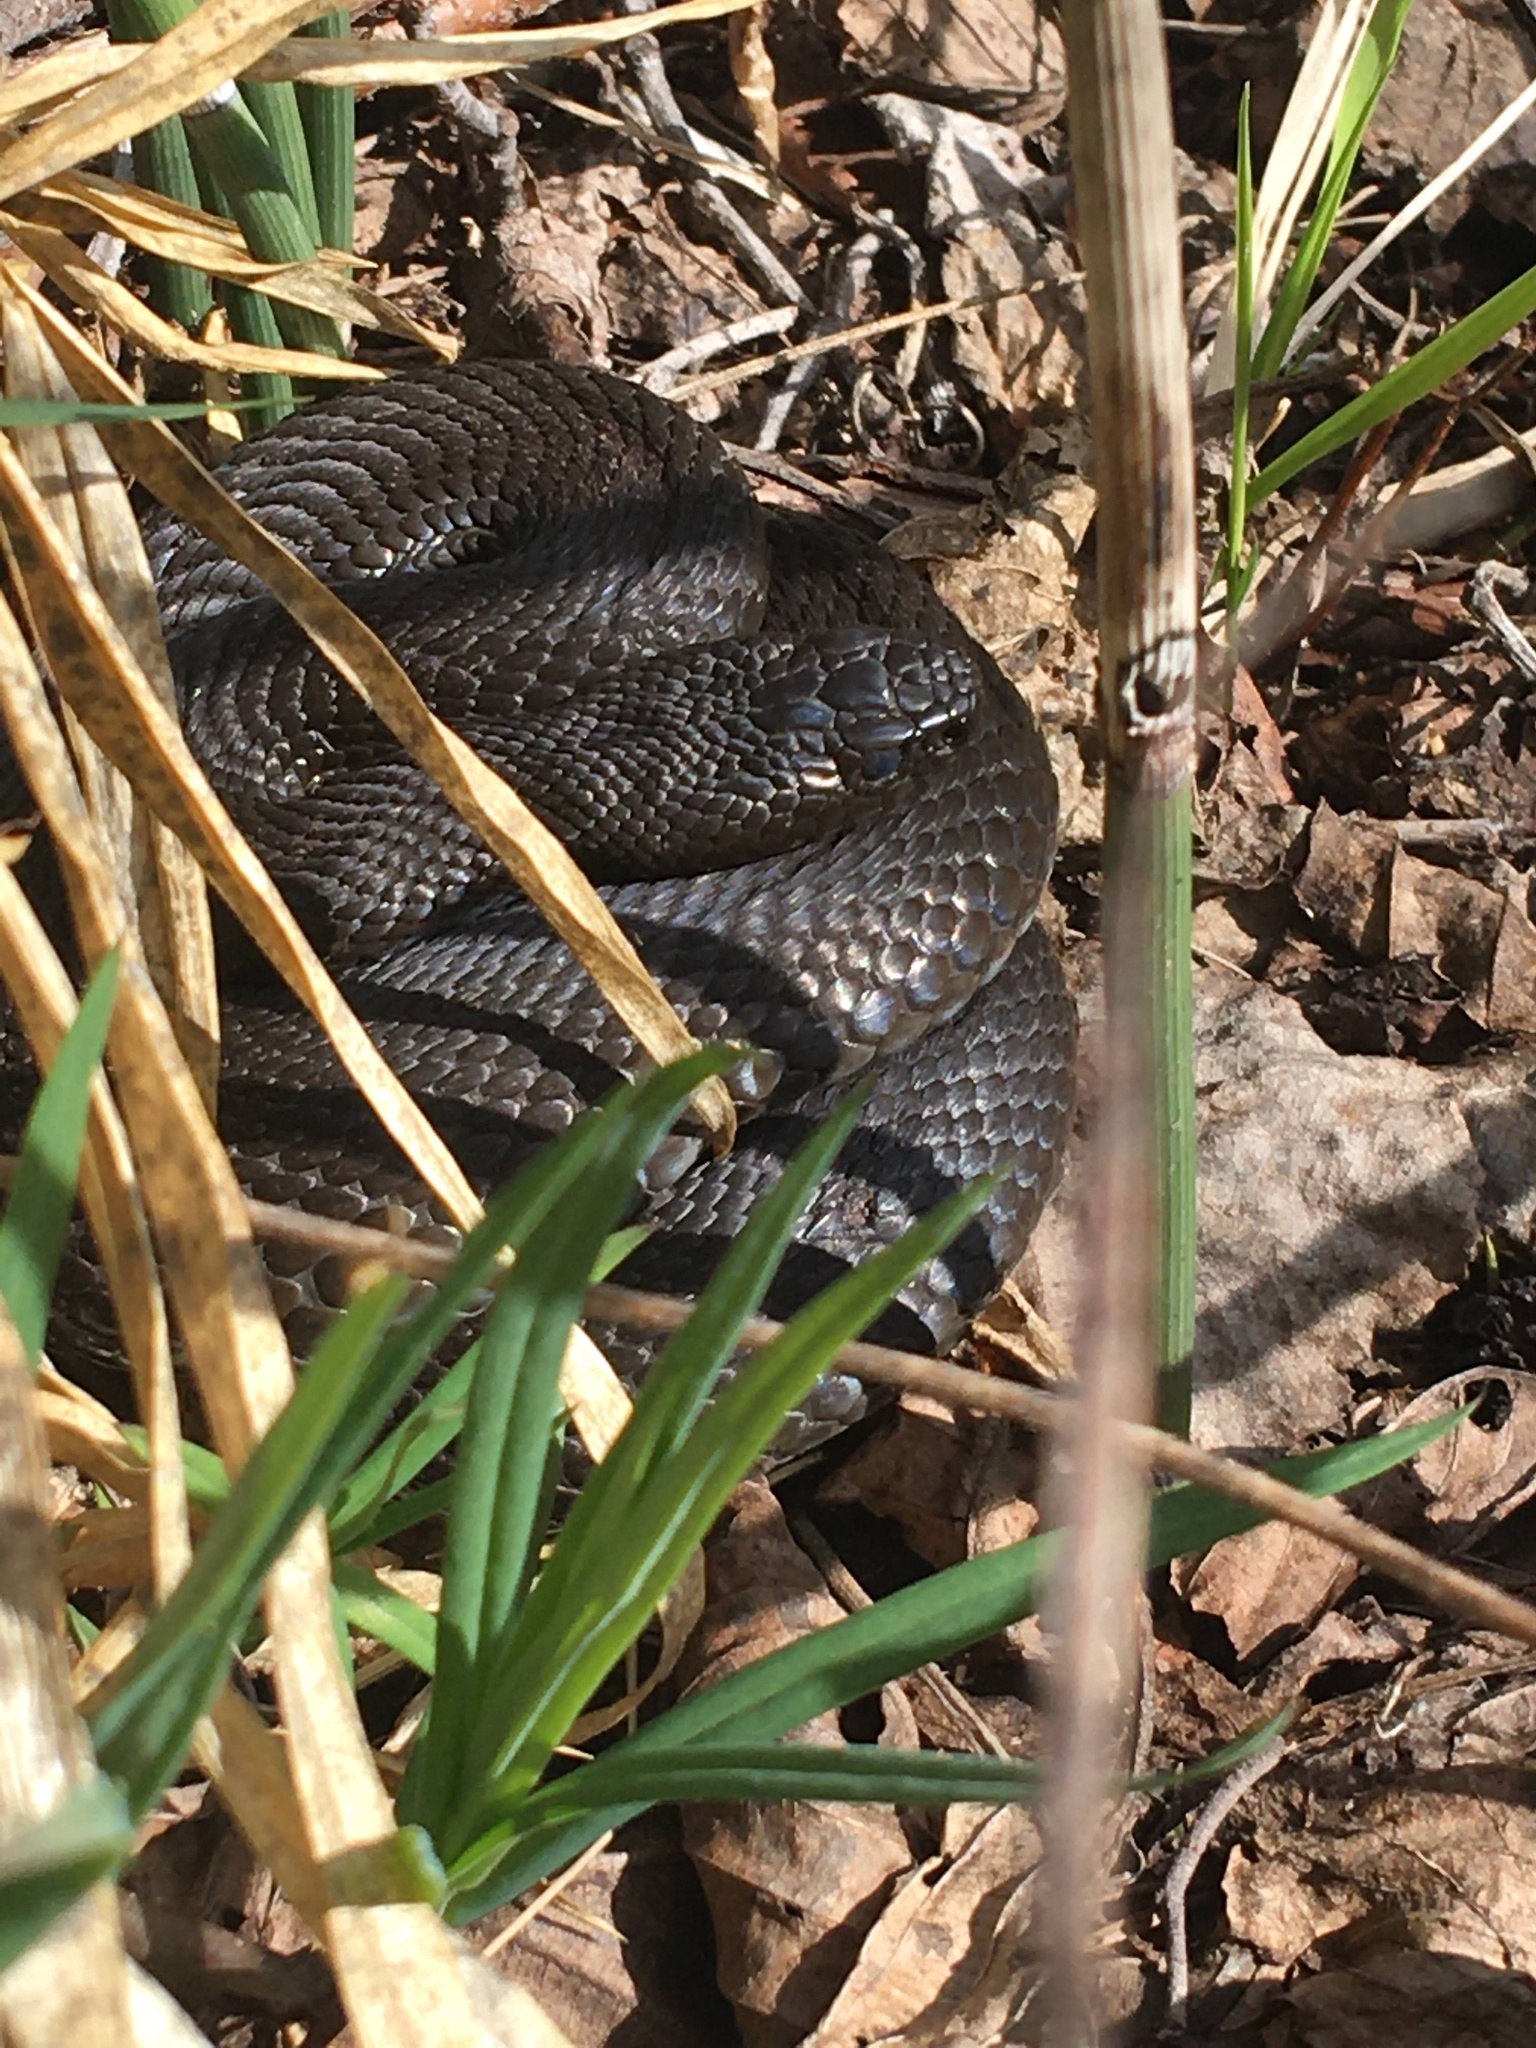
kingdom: Animalia
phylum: Chordata
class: Squamata
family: Viperidae
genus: Vipera
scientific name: Vipera berus
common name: Adder
